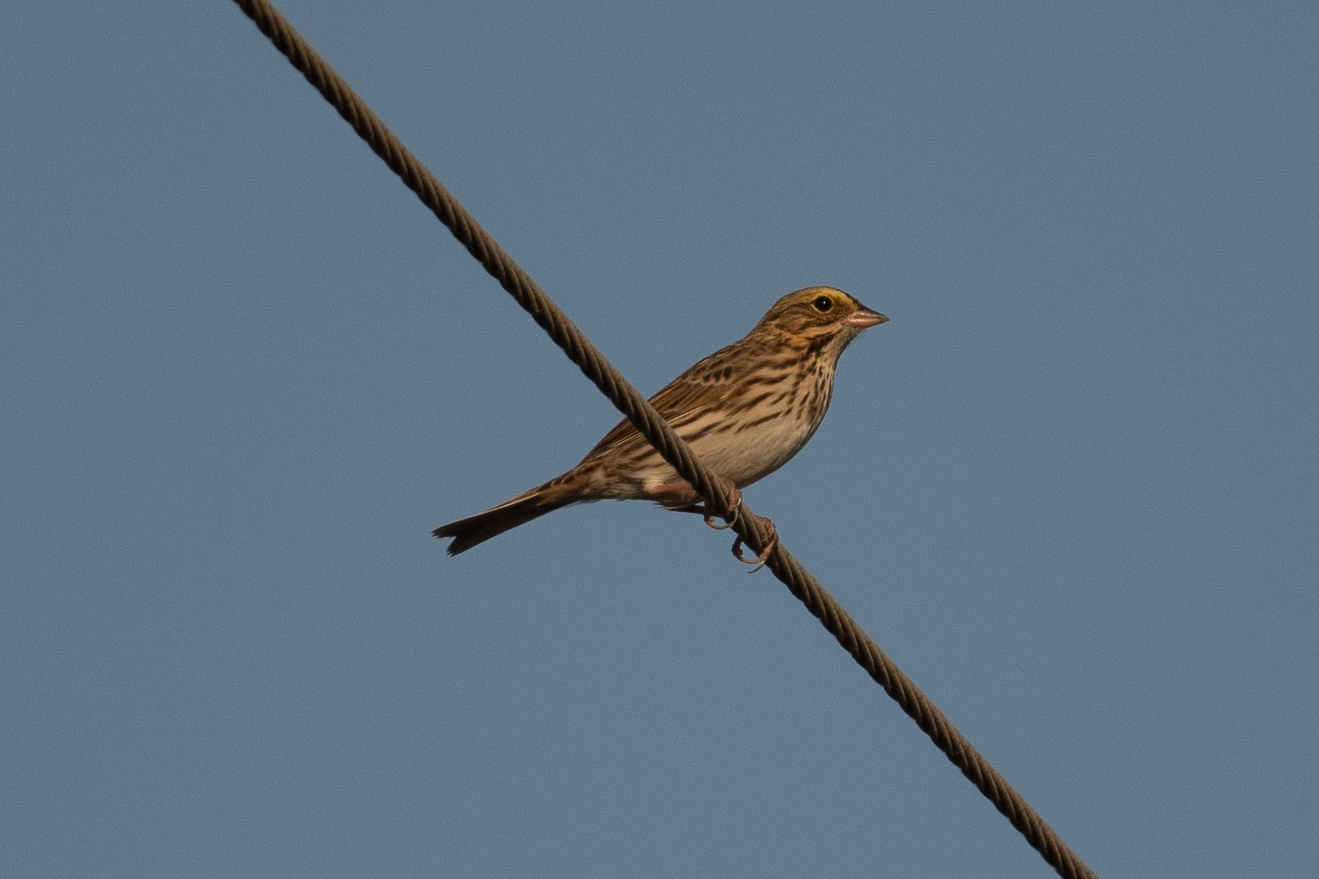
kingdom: Animalia
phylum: Chordata
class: Aves
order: Passeriformes
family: Passerellidae
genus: Passerculus
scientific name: Passerculus sandwichensis
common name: Savannah sparrow
